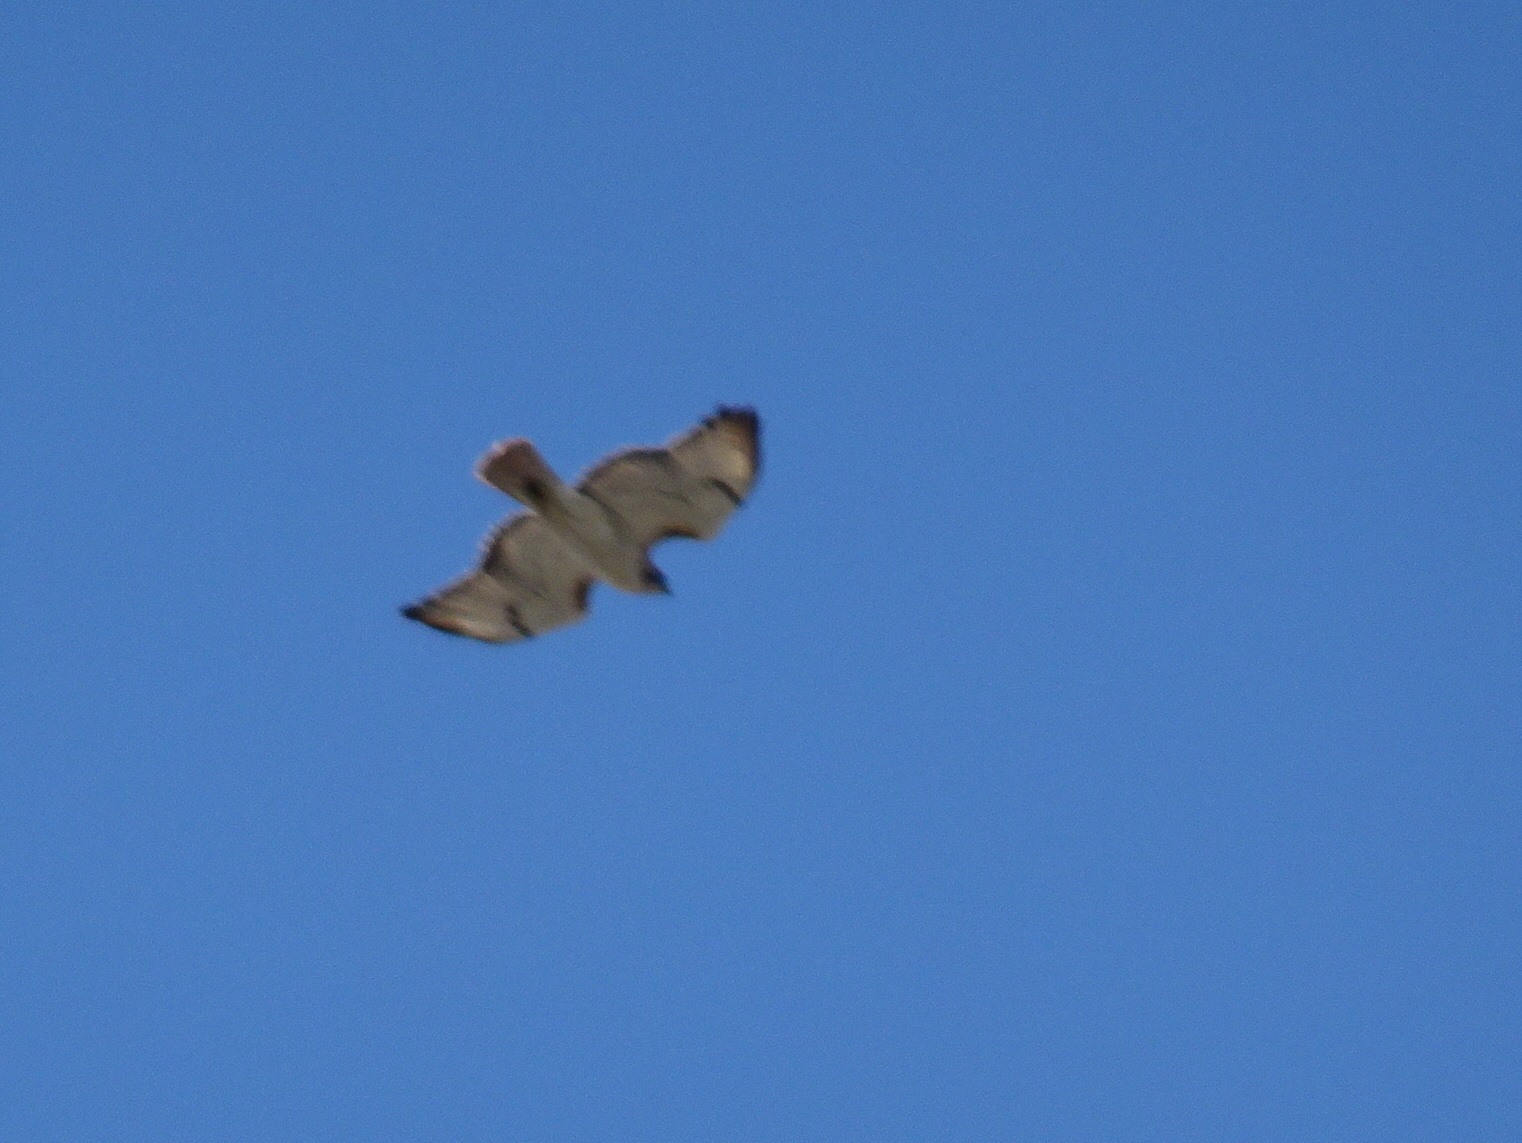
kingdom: Animalia
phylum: Chordata
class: Aves
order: Accipitriformes
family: Accipitridae
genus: Buteo
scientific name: Buteo jamaicensis
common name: Red-tailed hawk
